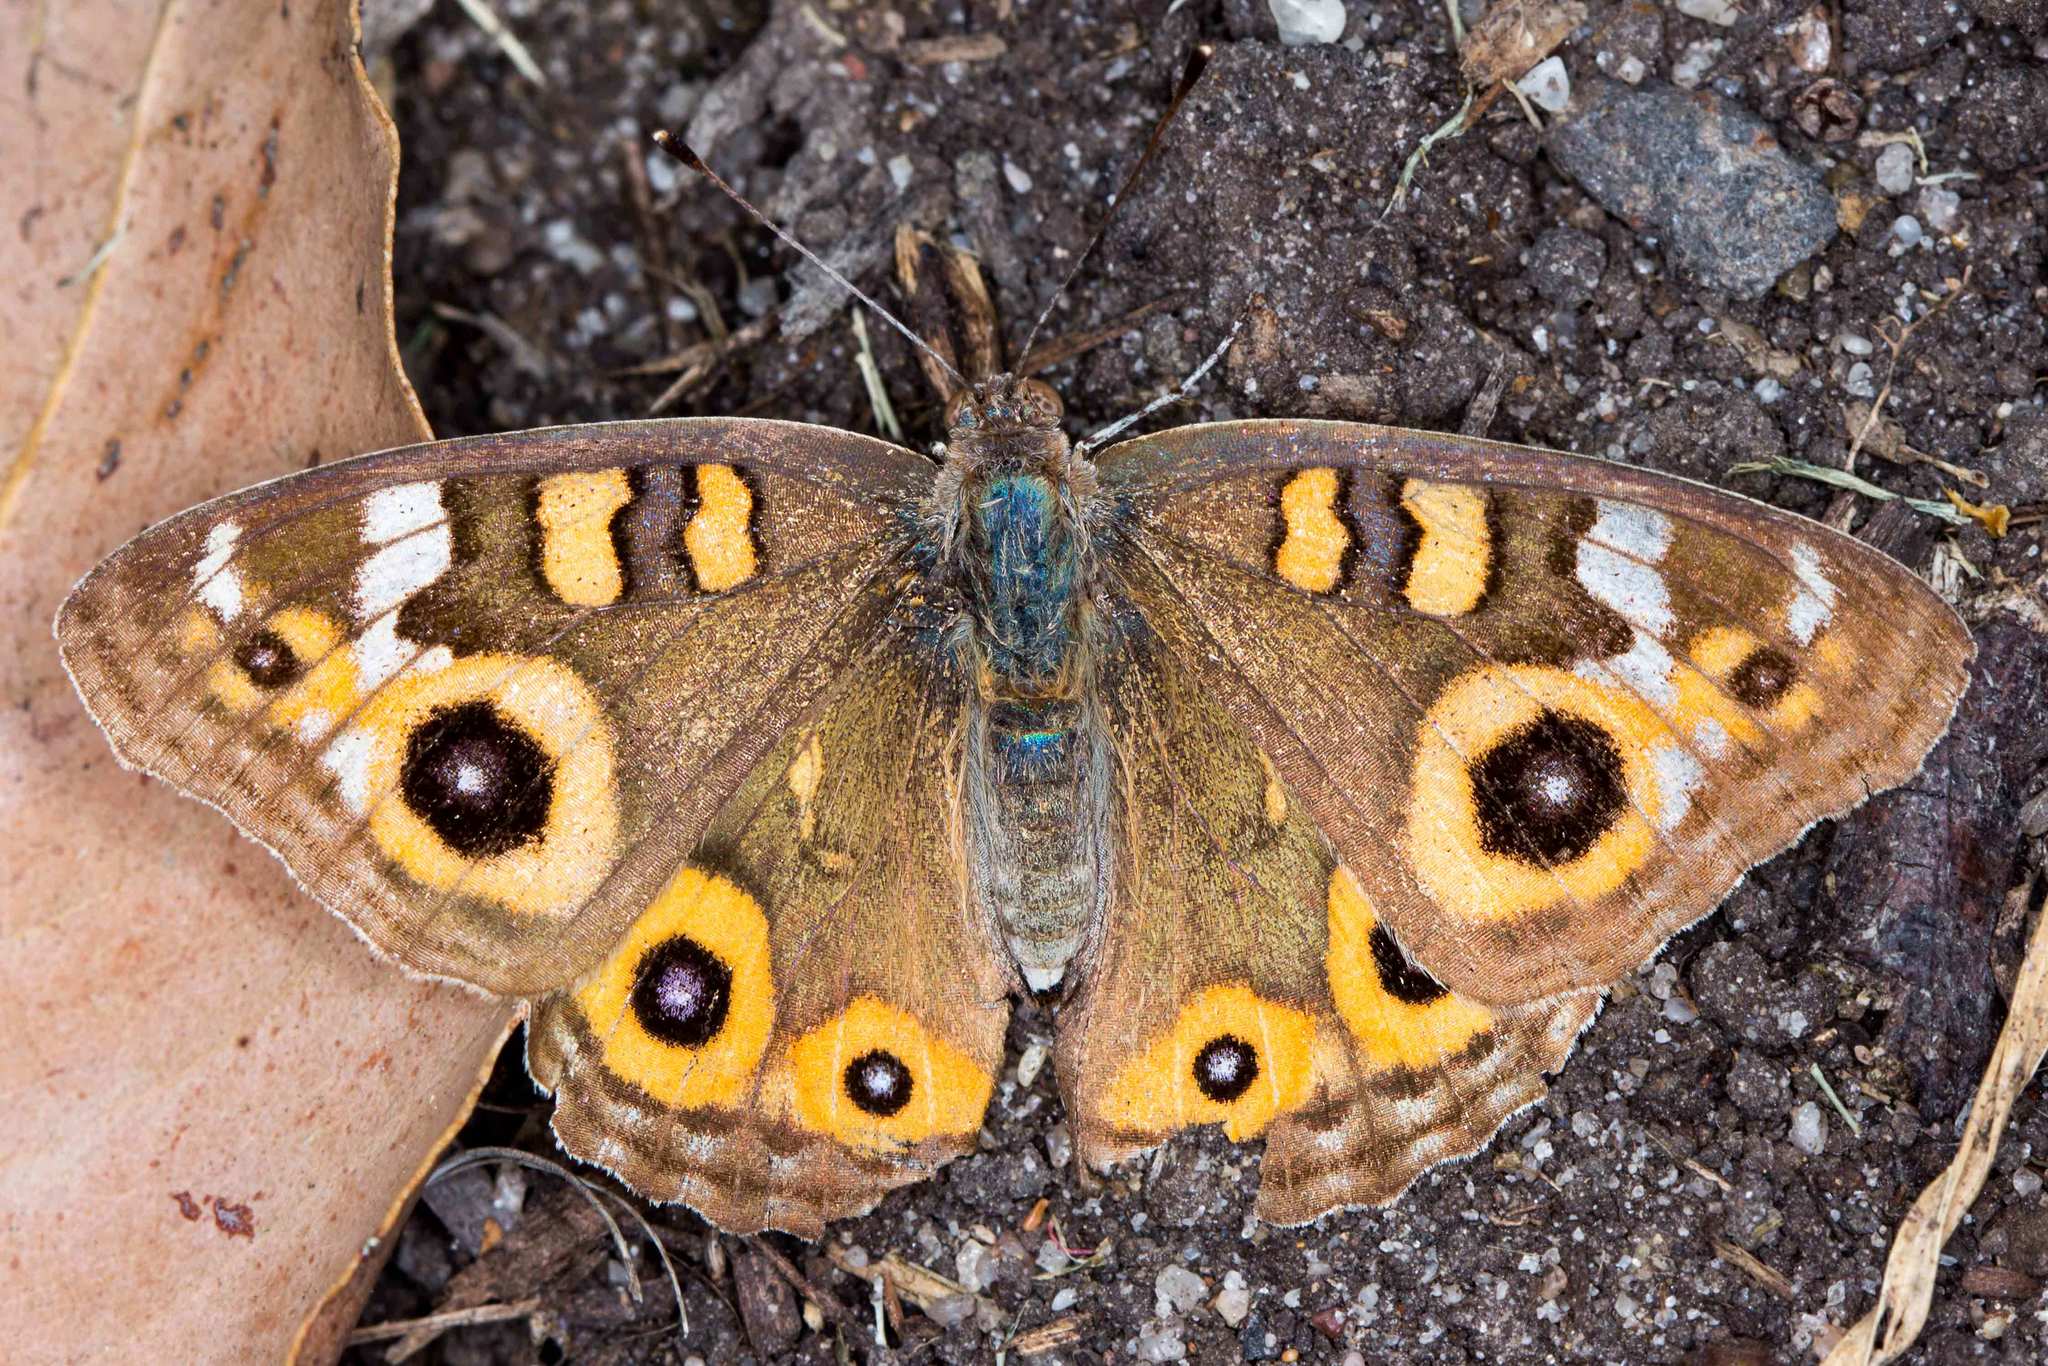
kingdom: Animalia
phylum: Arthropoda
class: Insecta
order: Lepidoptera
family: Nymphalidae
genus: Junonia
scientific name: Junonia villida
